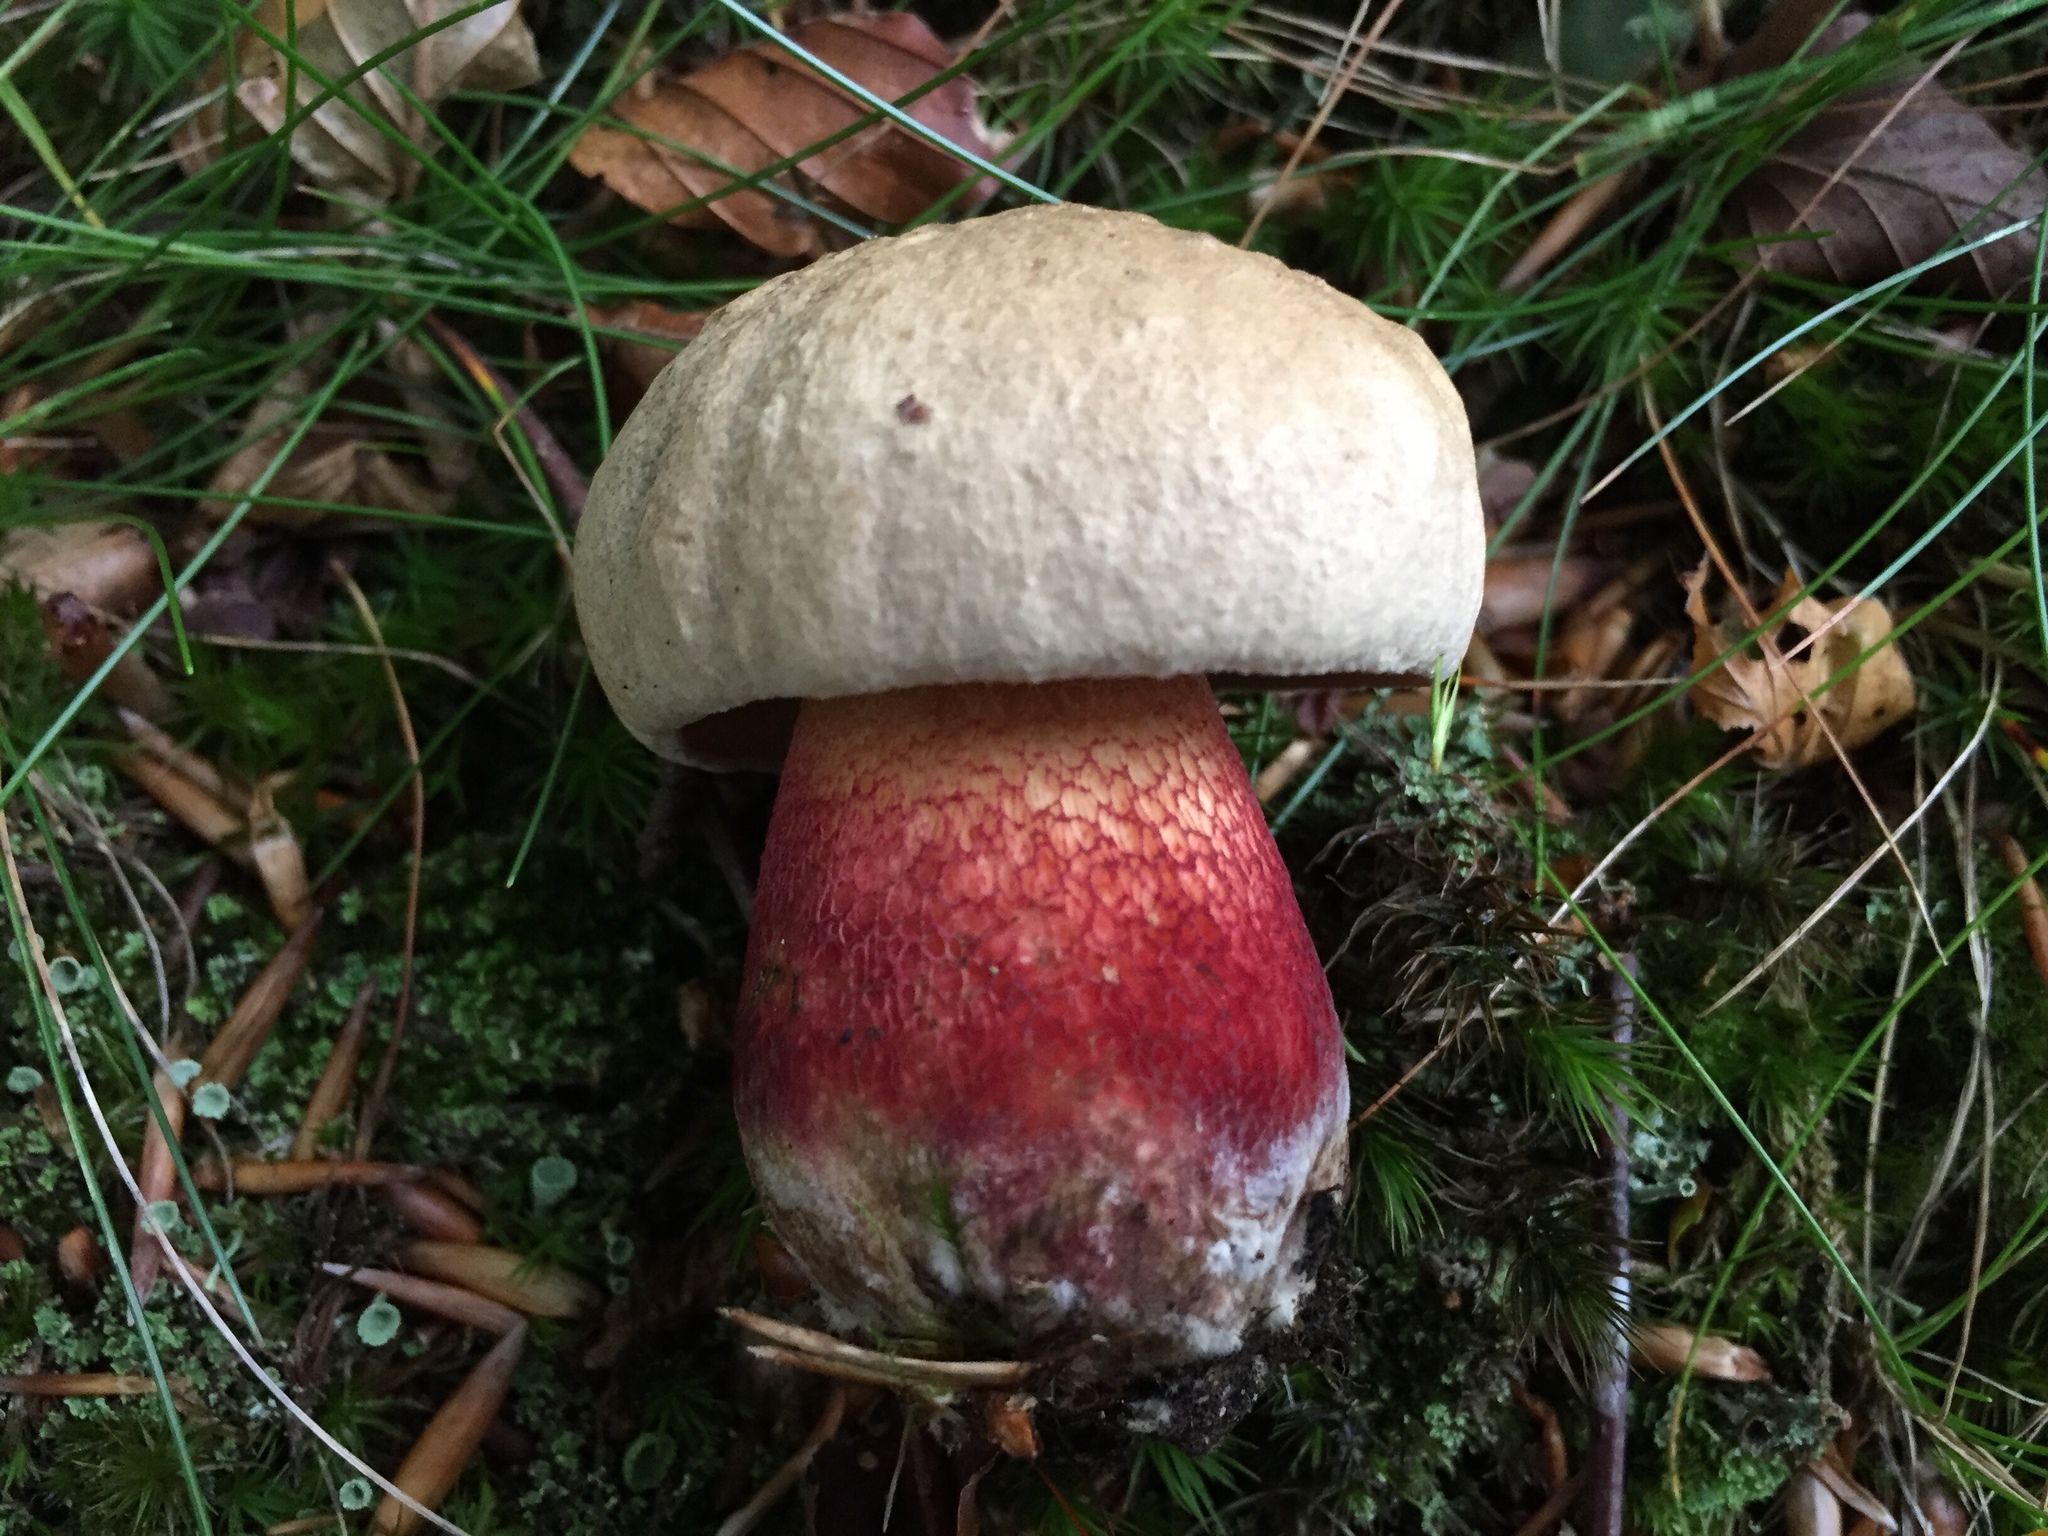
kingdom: Fungi
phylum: Basidiomycota
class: Agaricomycetes
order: Boletales
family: Boletaceae
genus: Caloboletus
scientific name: Caloboletus calopus
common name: Bitter beech bolete
